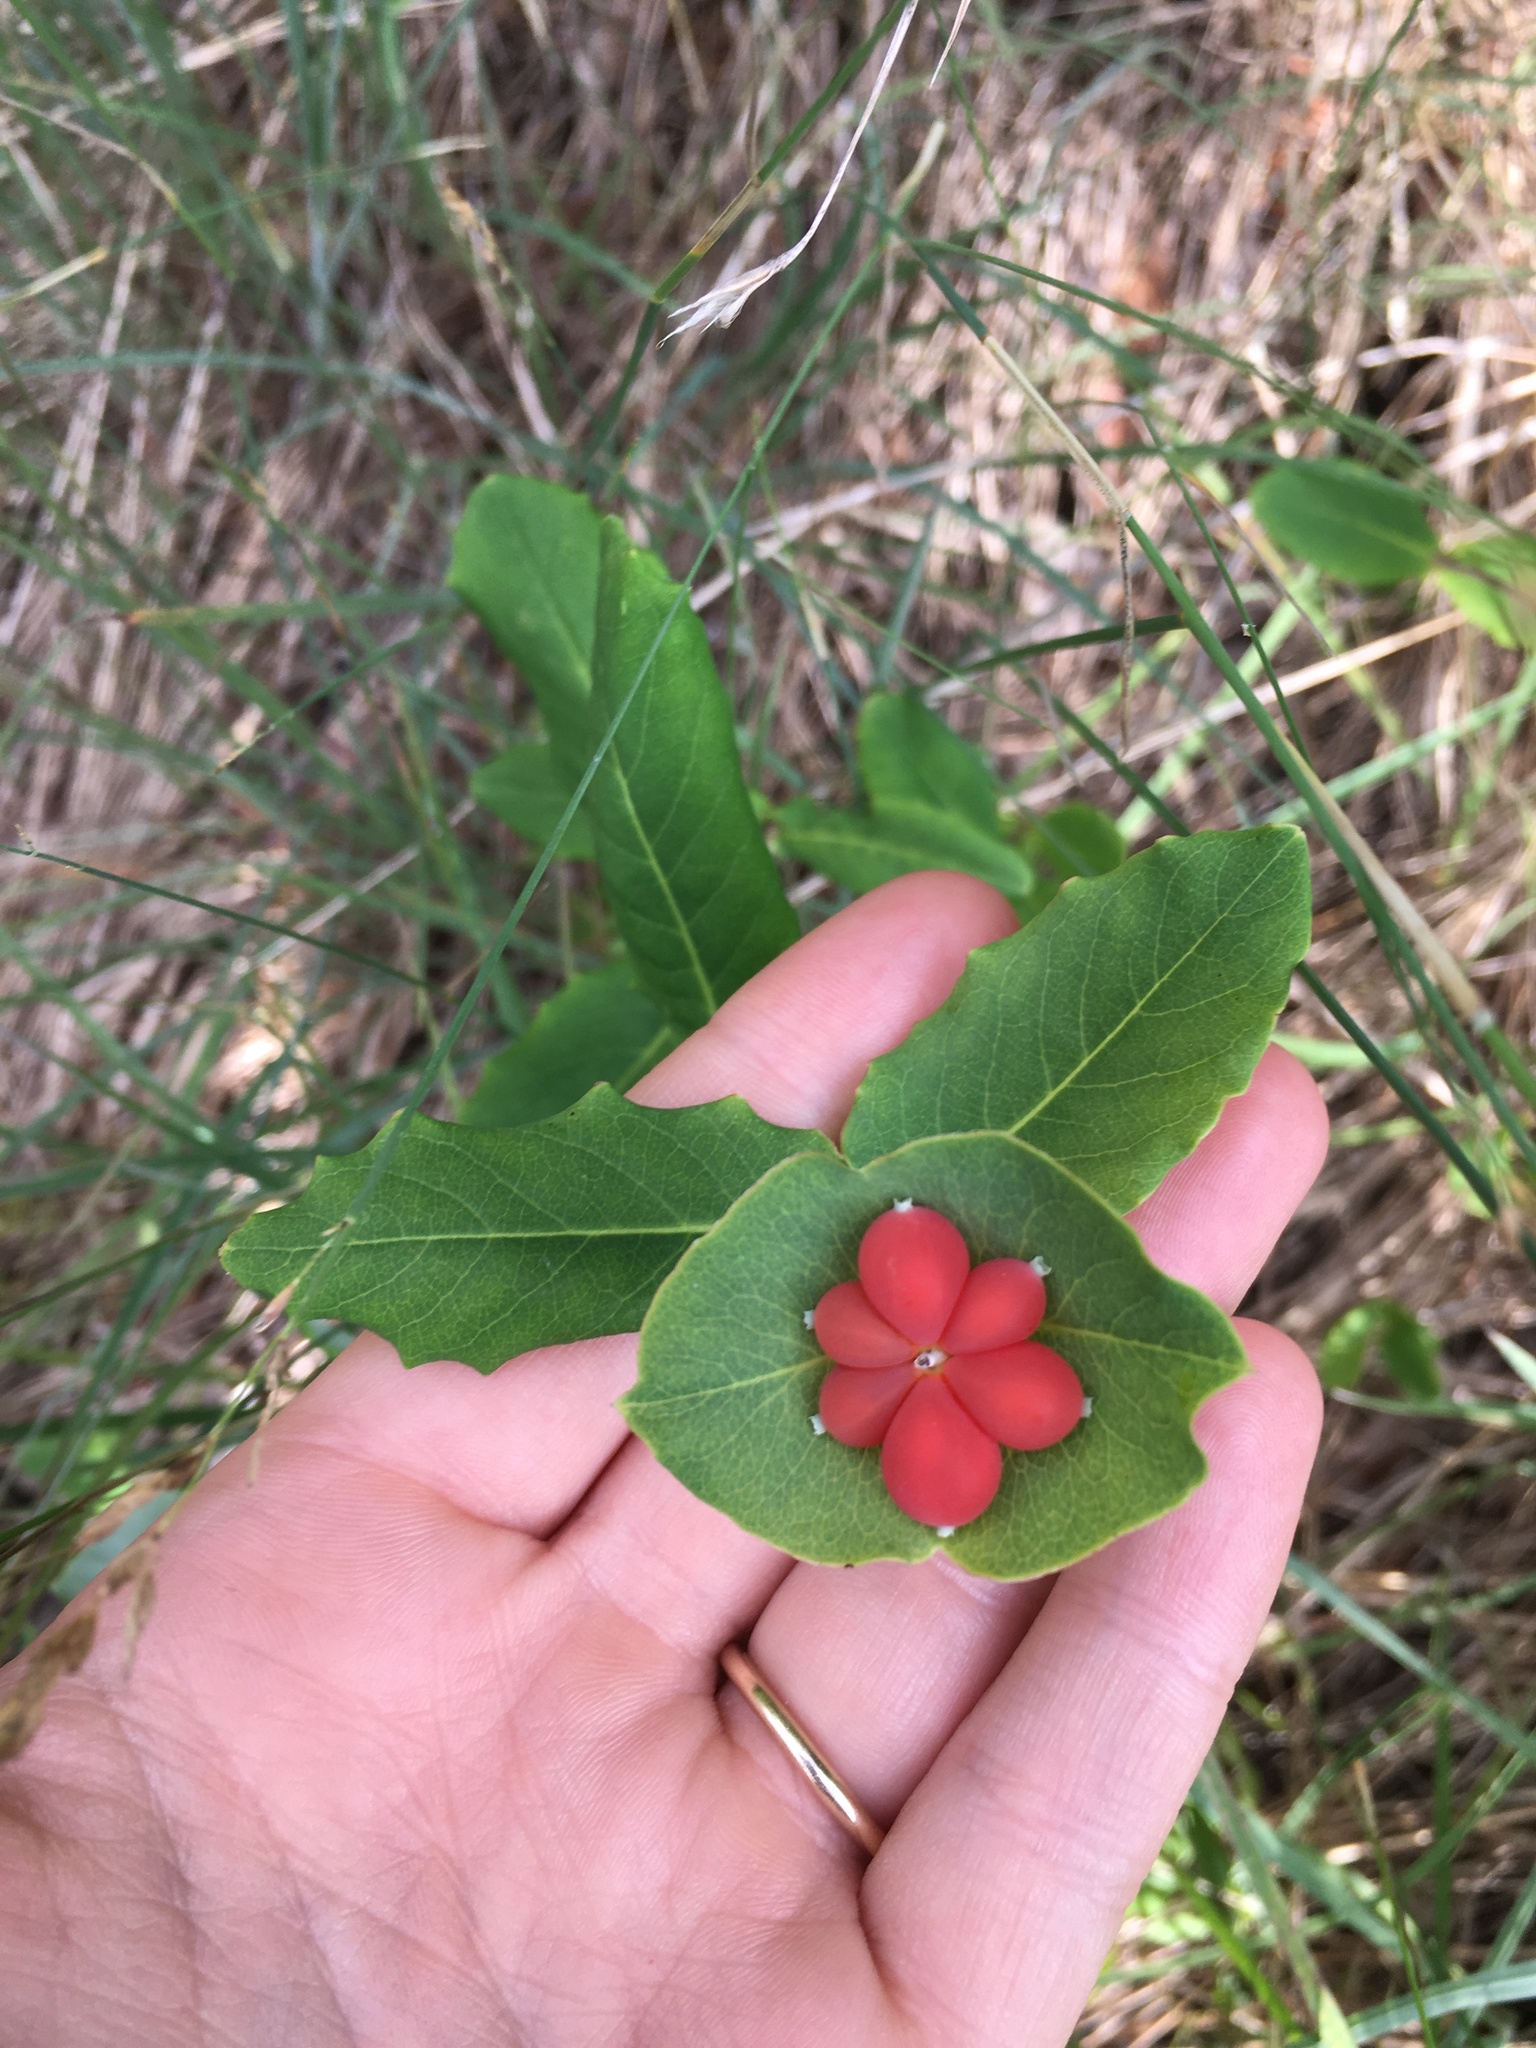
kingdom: Plantae
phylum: Tracheophyta
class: Magnoliopsida
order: Dipsacales
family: Caprifoliaceae
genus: Lonicera
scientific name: Lonicera dioica
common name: Limber honeysuckle
